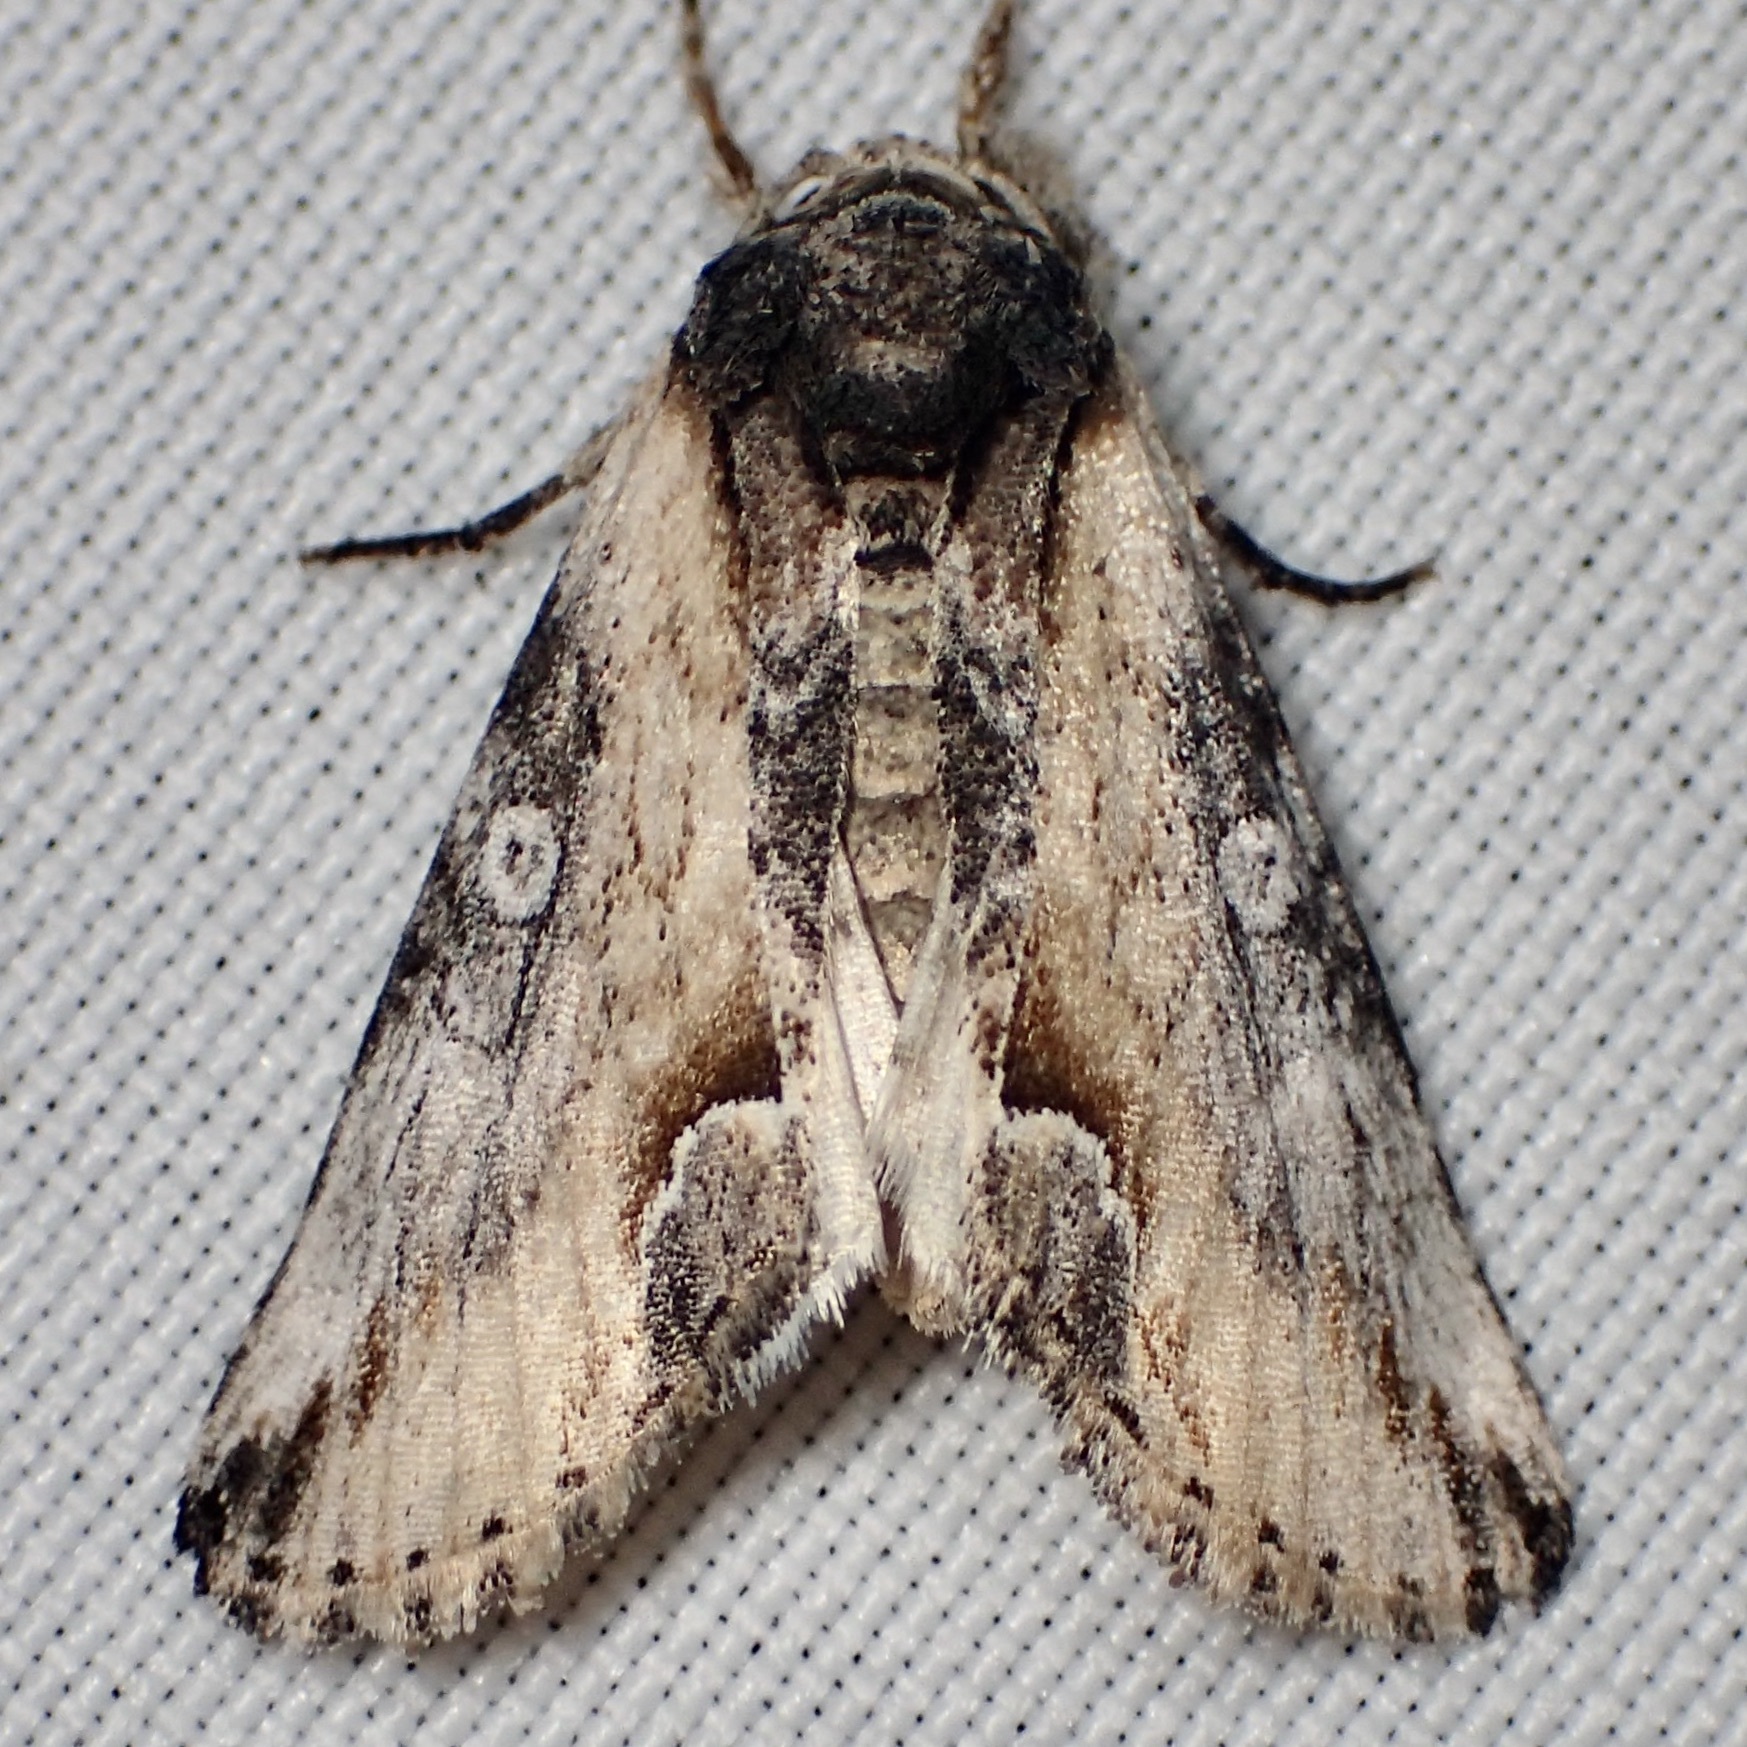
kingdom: Animalia
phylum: Arthropoda
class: Insecta
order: Lepidoptera
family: Noctuidae
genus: Prothrinax
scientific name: Prothrinax luteomedia
